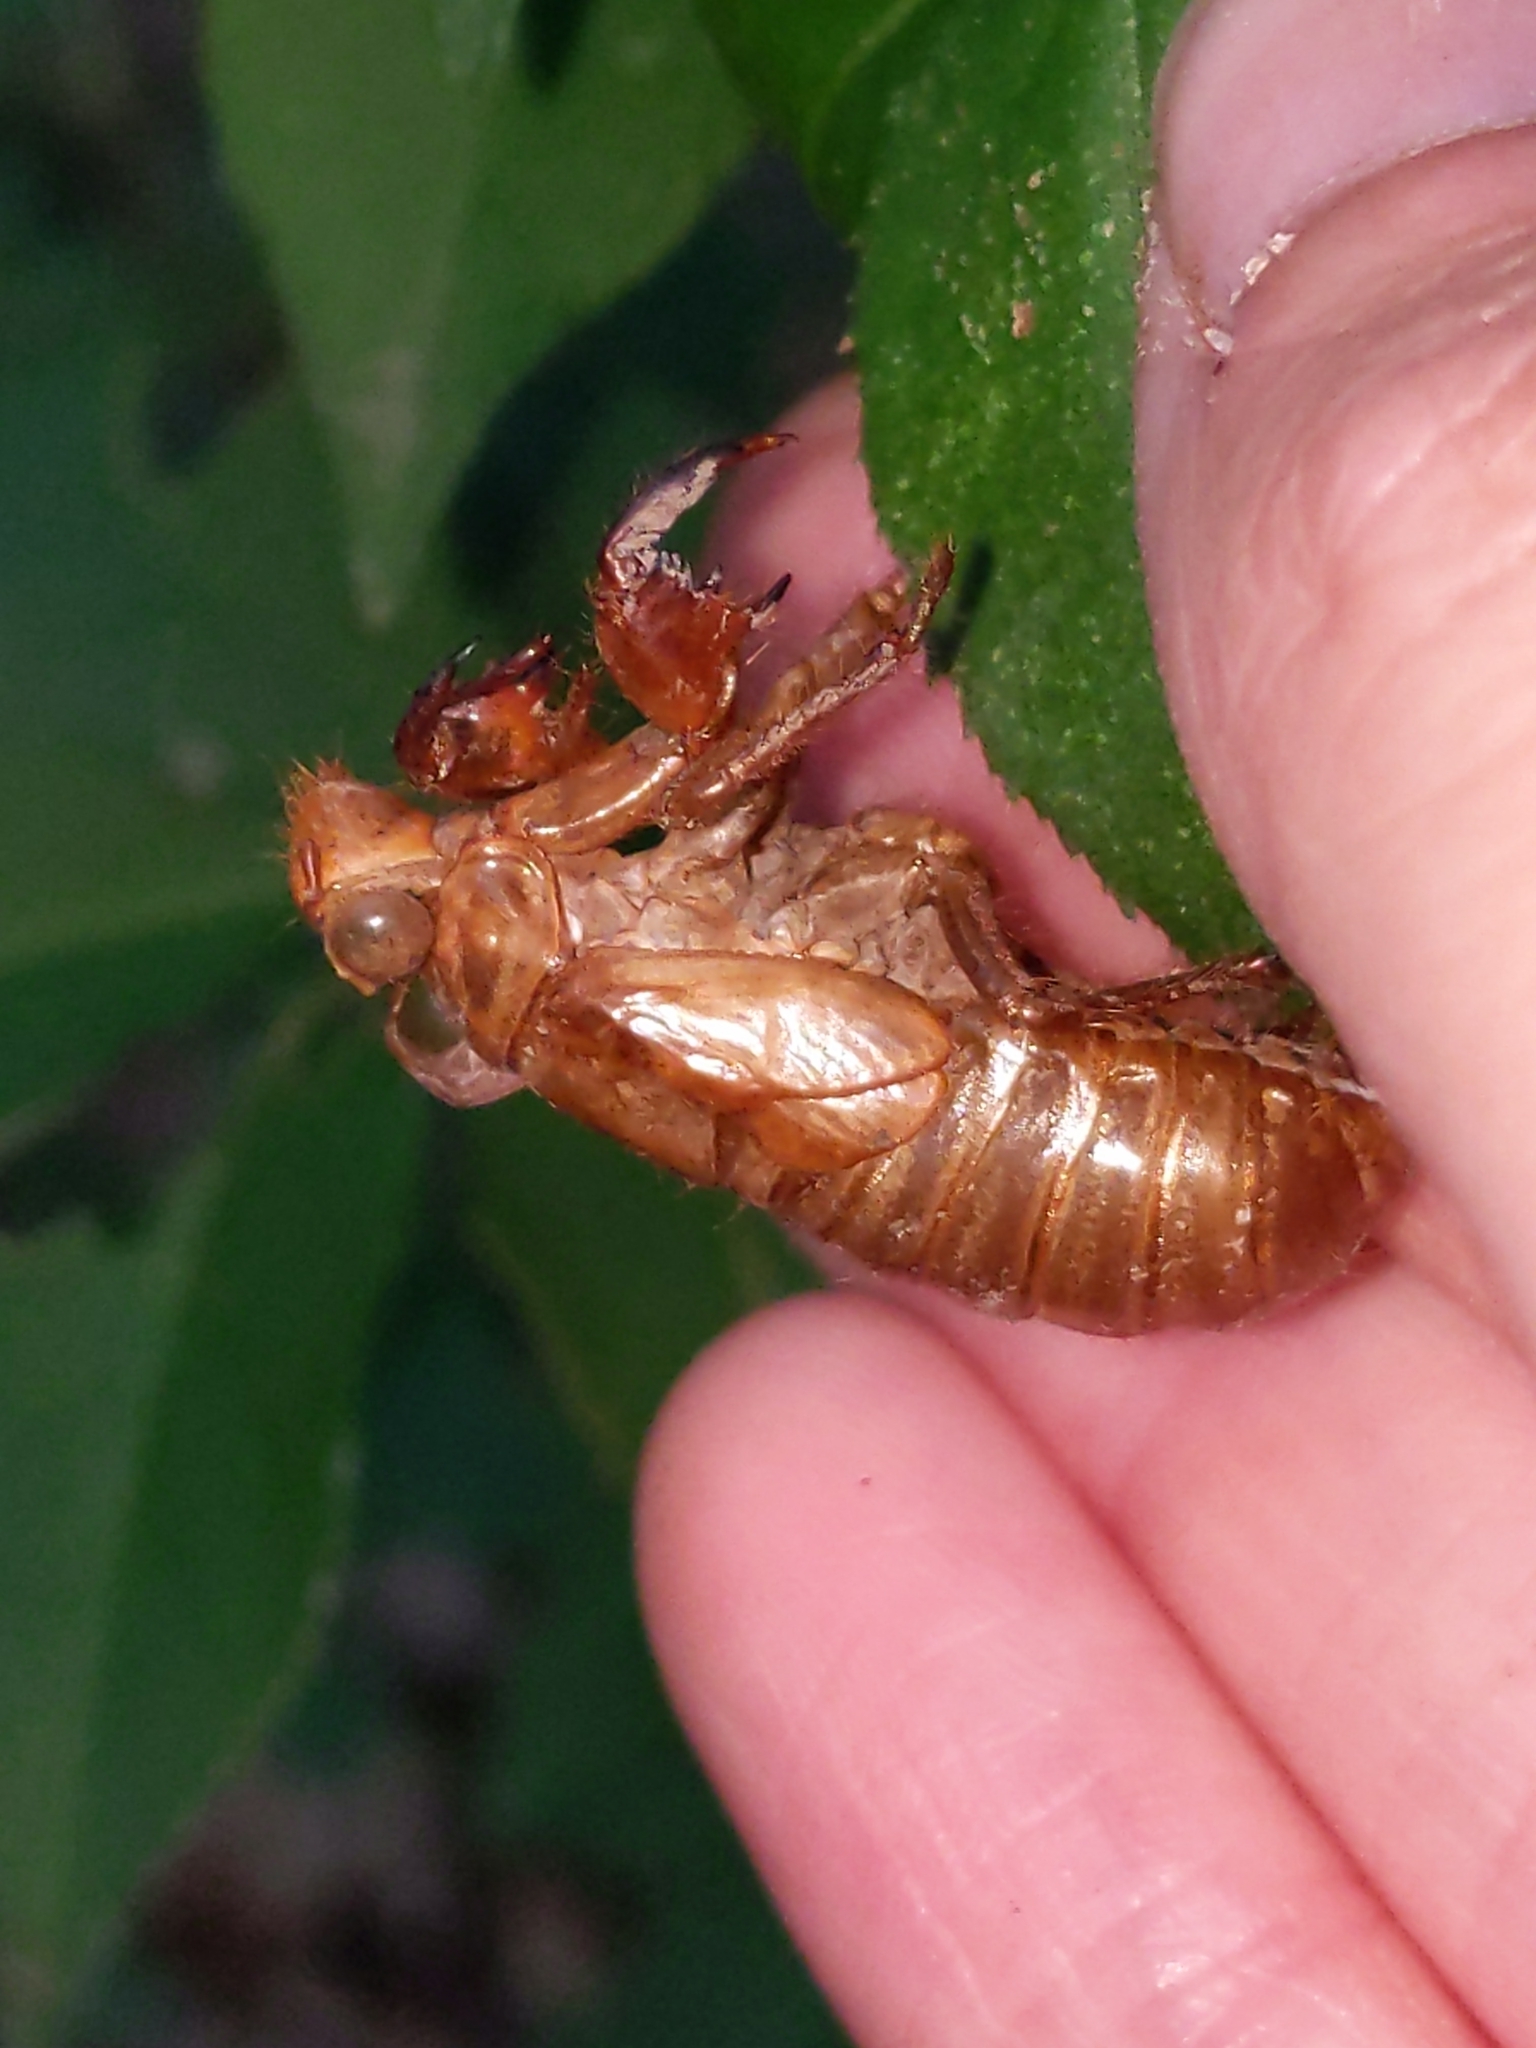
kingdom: Animalia
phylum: Arthropoda
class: Insecta
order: Hemiptera
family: Cicadidae
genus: Magicicada
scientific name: Magicicada
